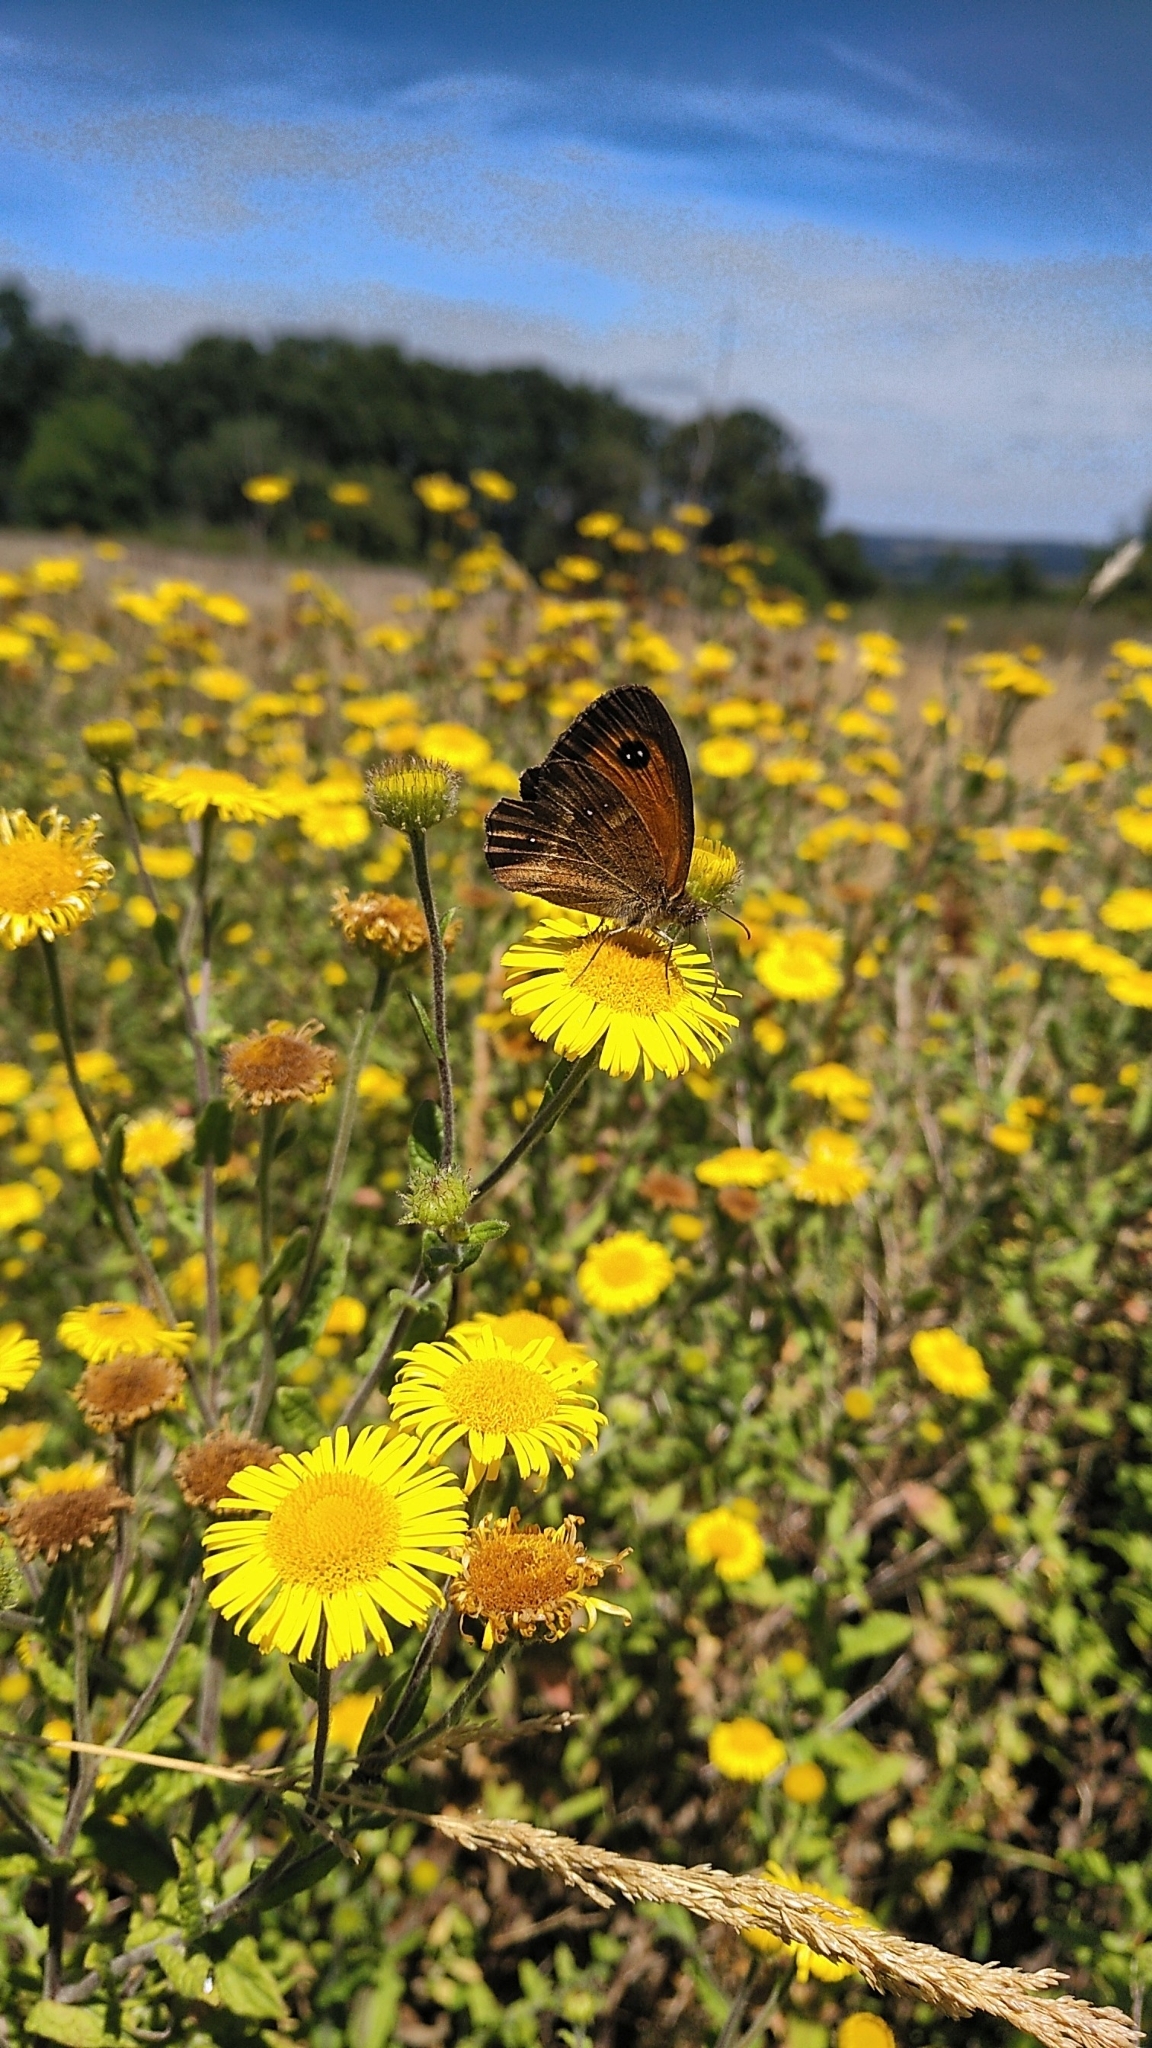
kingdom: Animalia
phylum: Arthropoda
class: Insecta
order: Lepidoptera
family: Nymphalidae
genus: Pyronia
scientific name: Pyronia tithonus
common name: Gatekeeper
